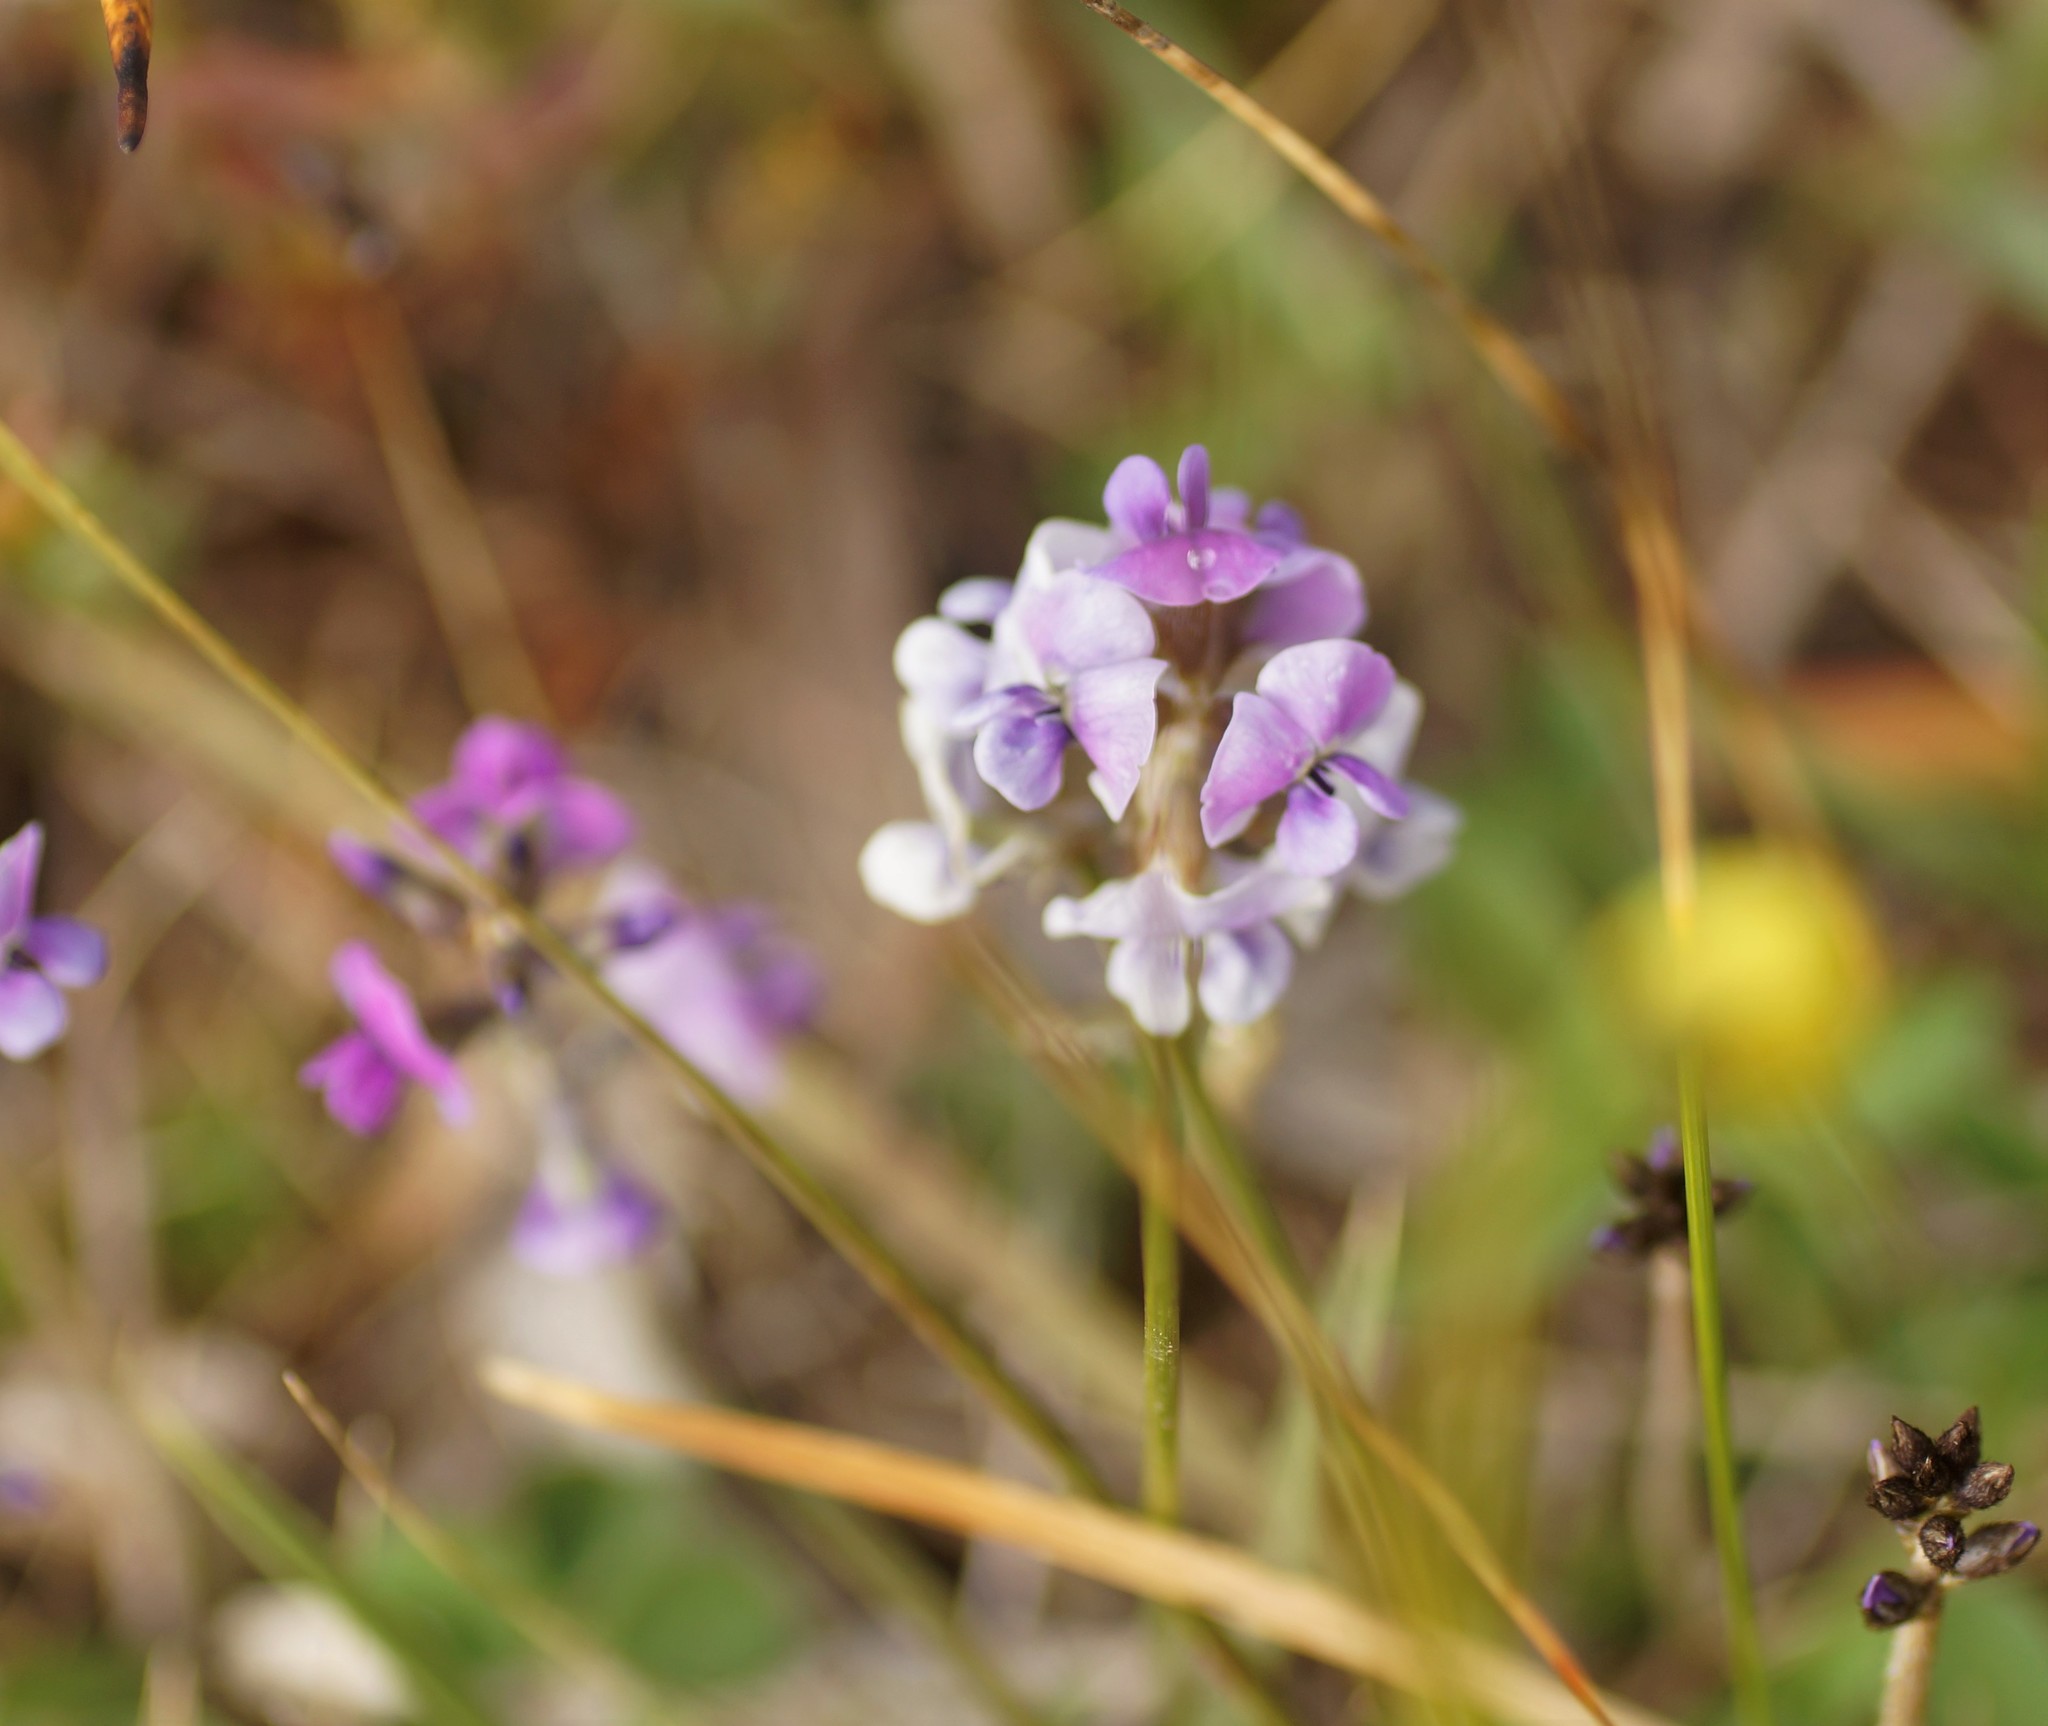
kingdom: Plantae
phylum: Tracheophyta
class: Magnoliopsida
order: Fabales
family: Fabaceae
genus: Glycine
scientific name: Glycine latrobeana
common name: Clover glycine
